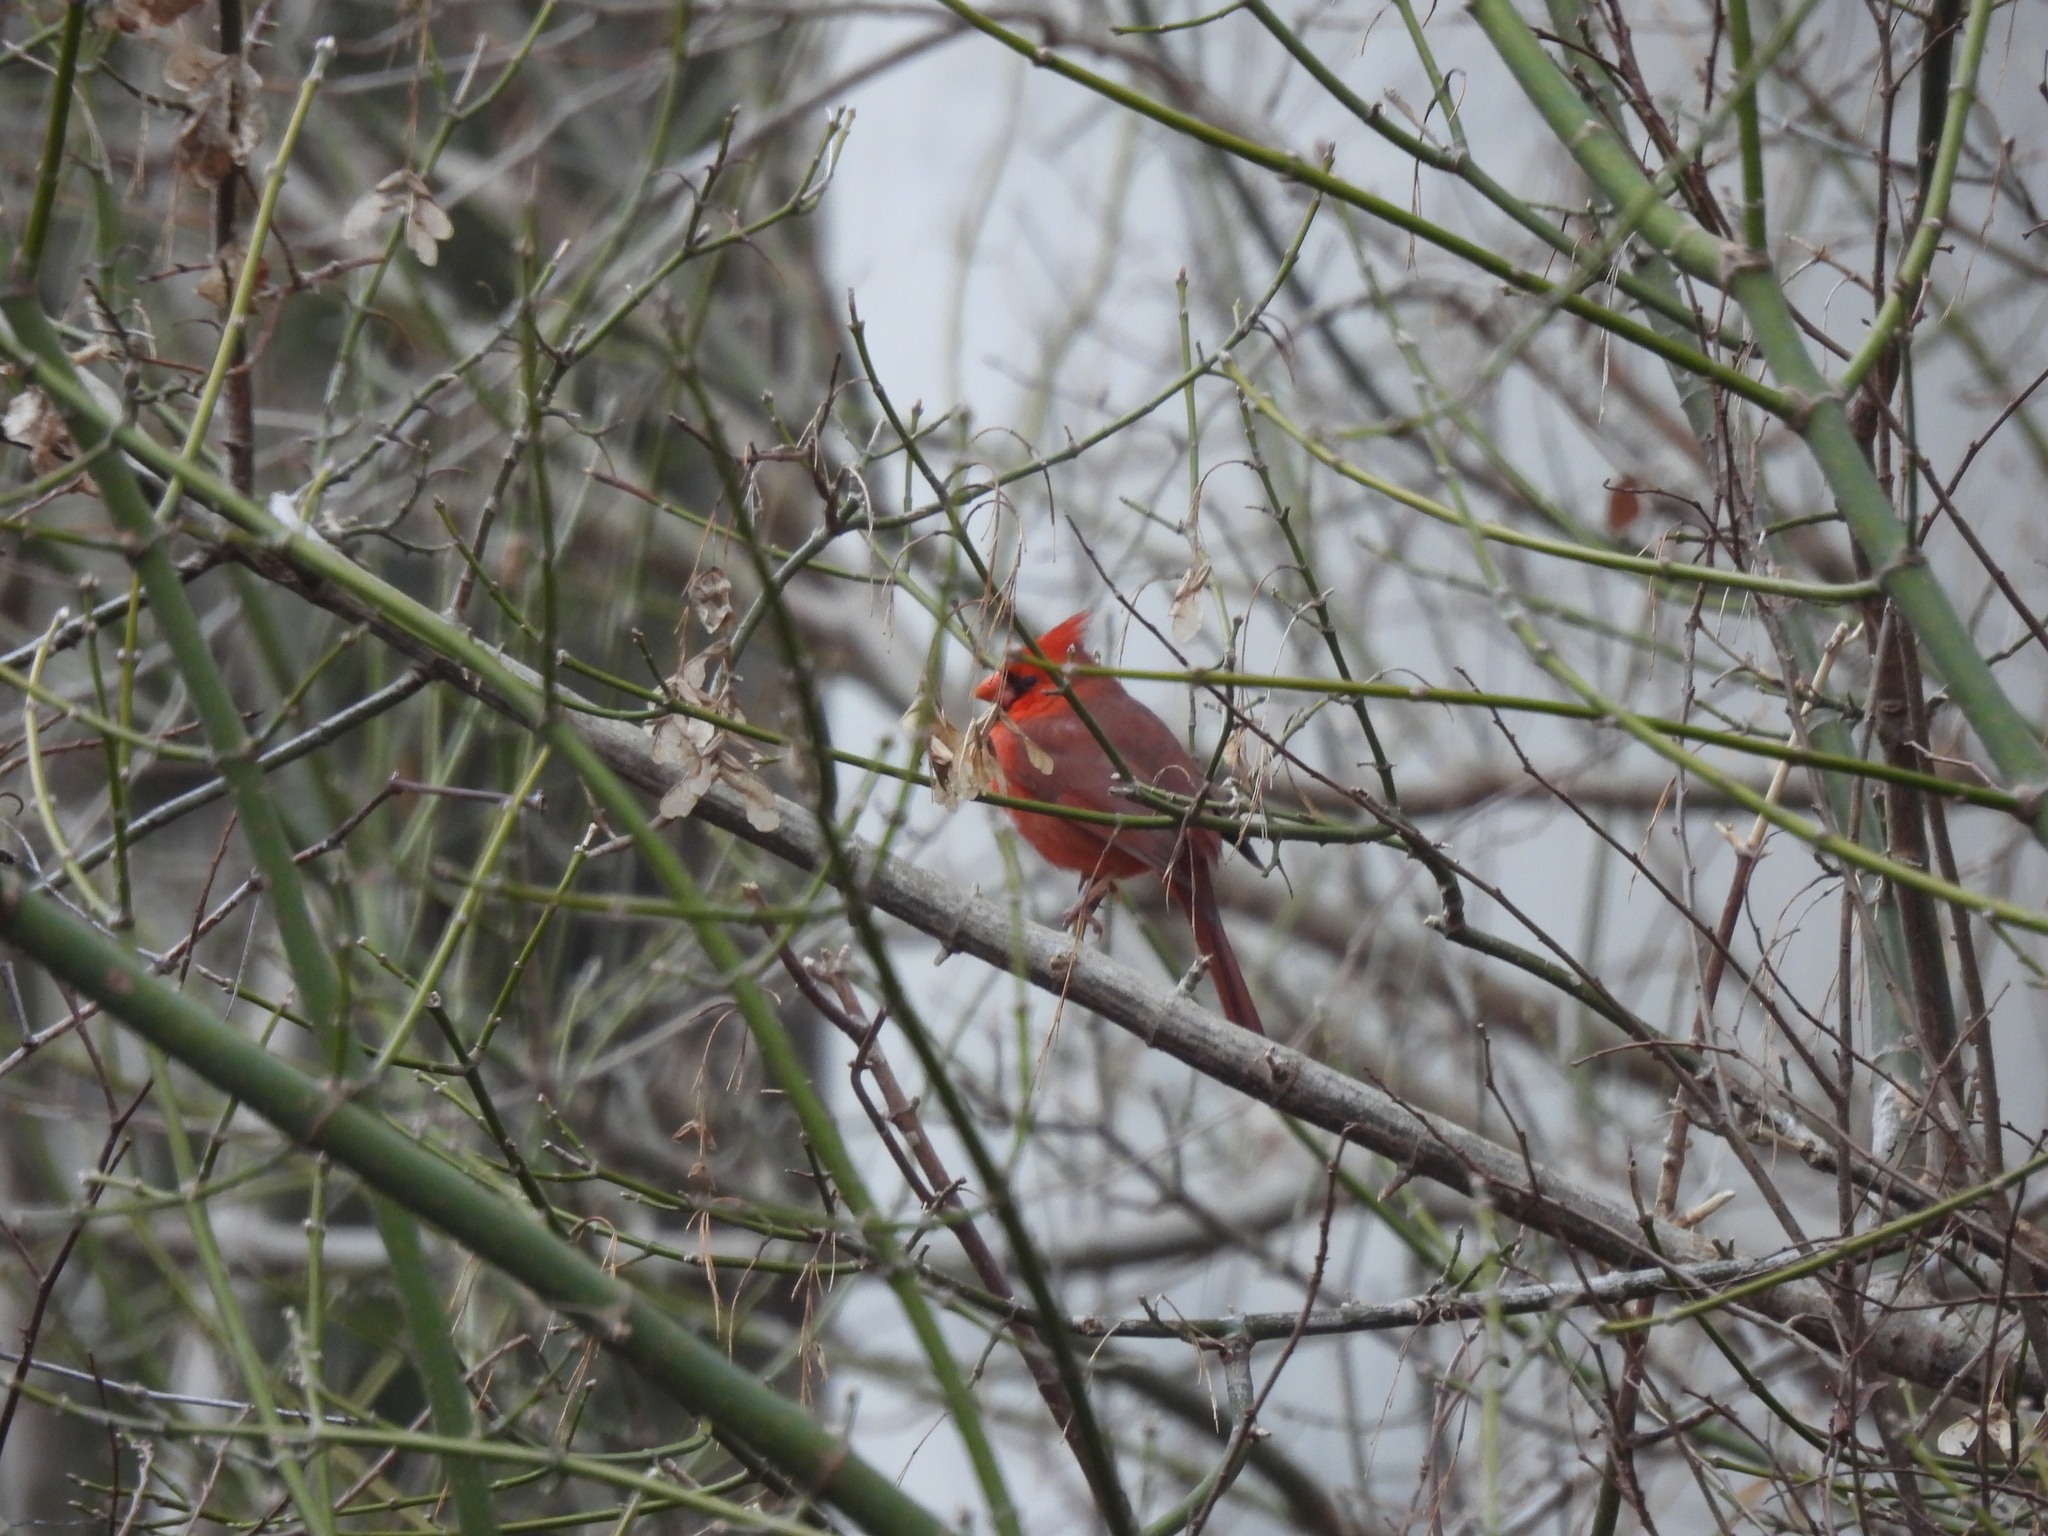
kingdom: Animalia
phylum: Chordata
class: Aves
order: Passeriformes
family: Cardinalidae
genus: Cardinalis
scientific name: Cardinalis cardinalis
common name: Northern cardinal
